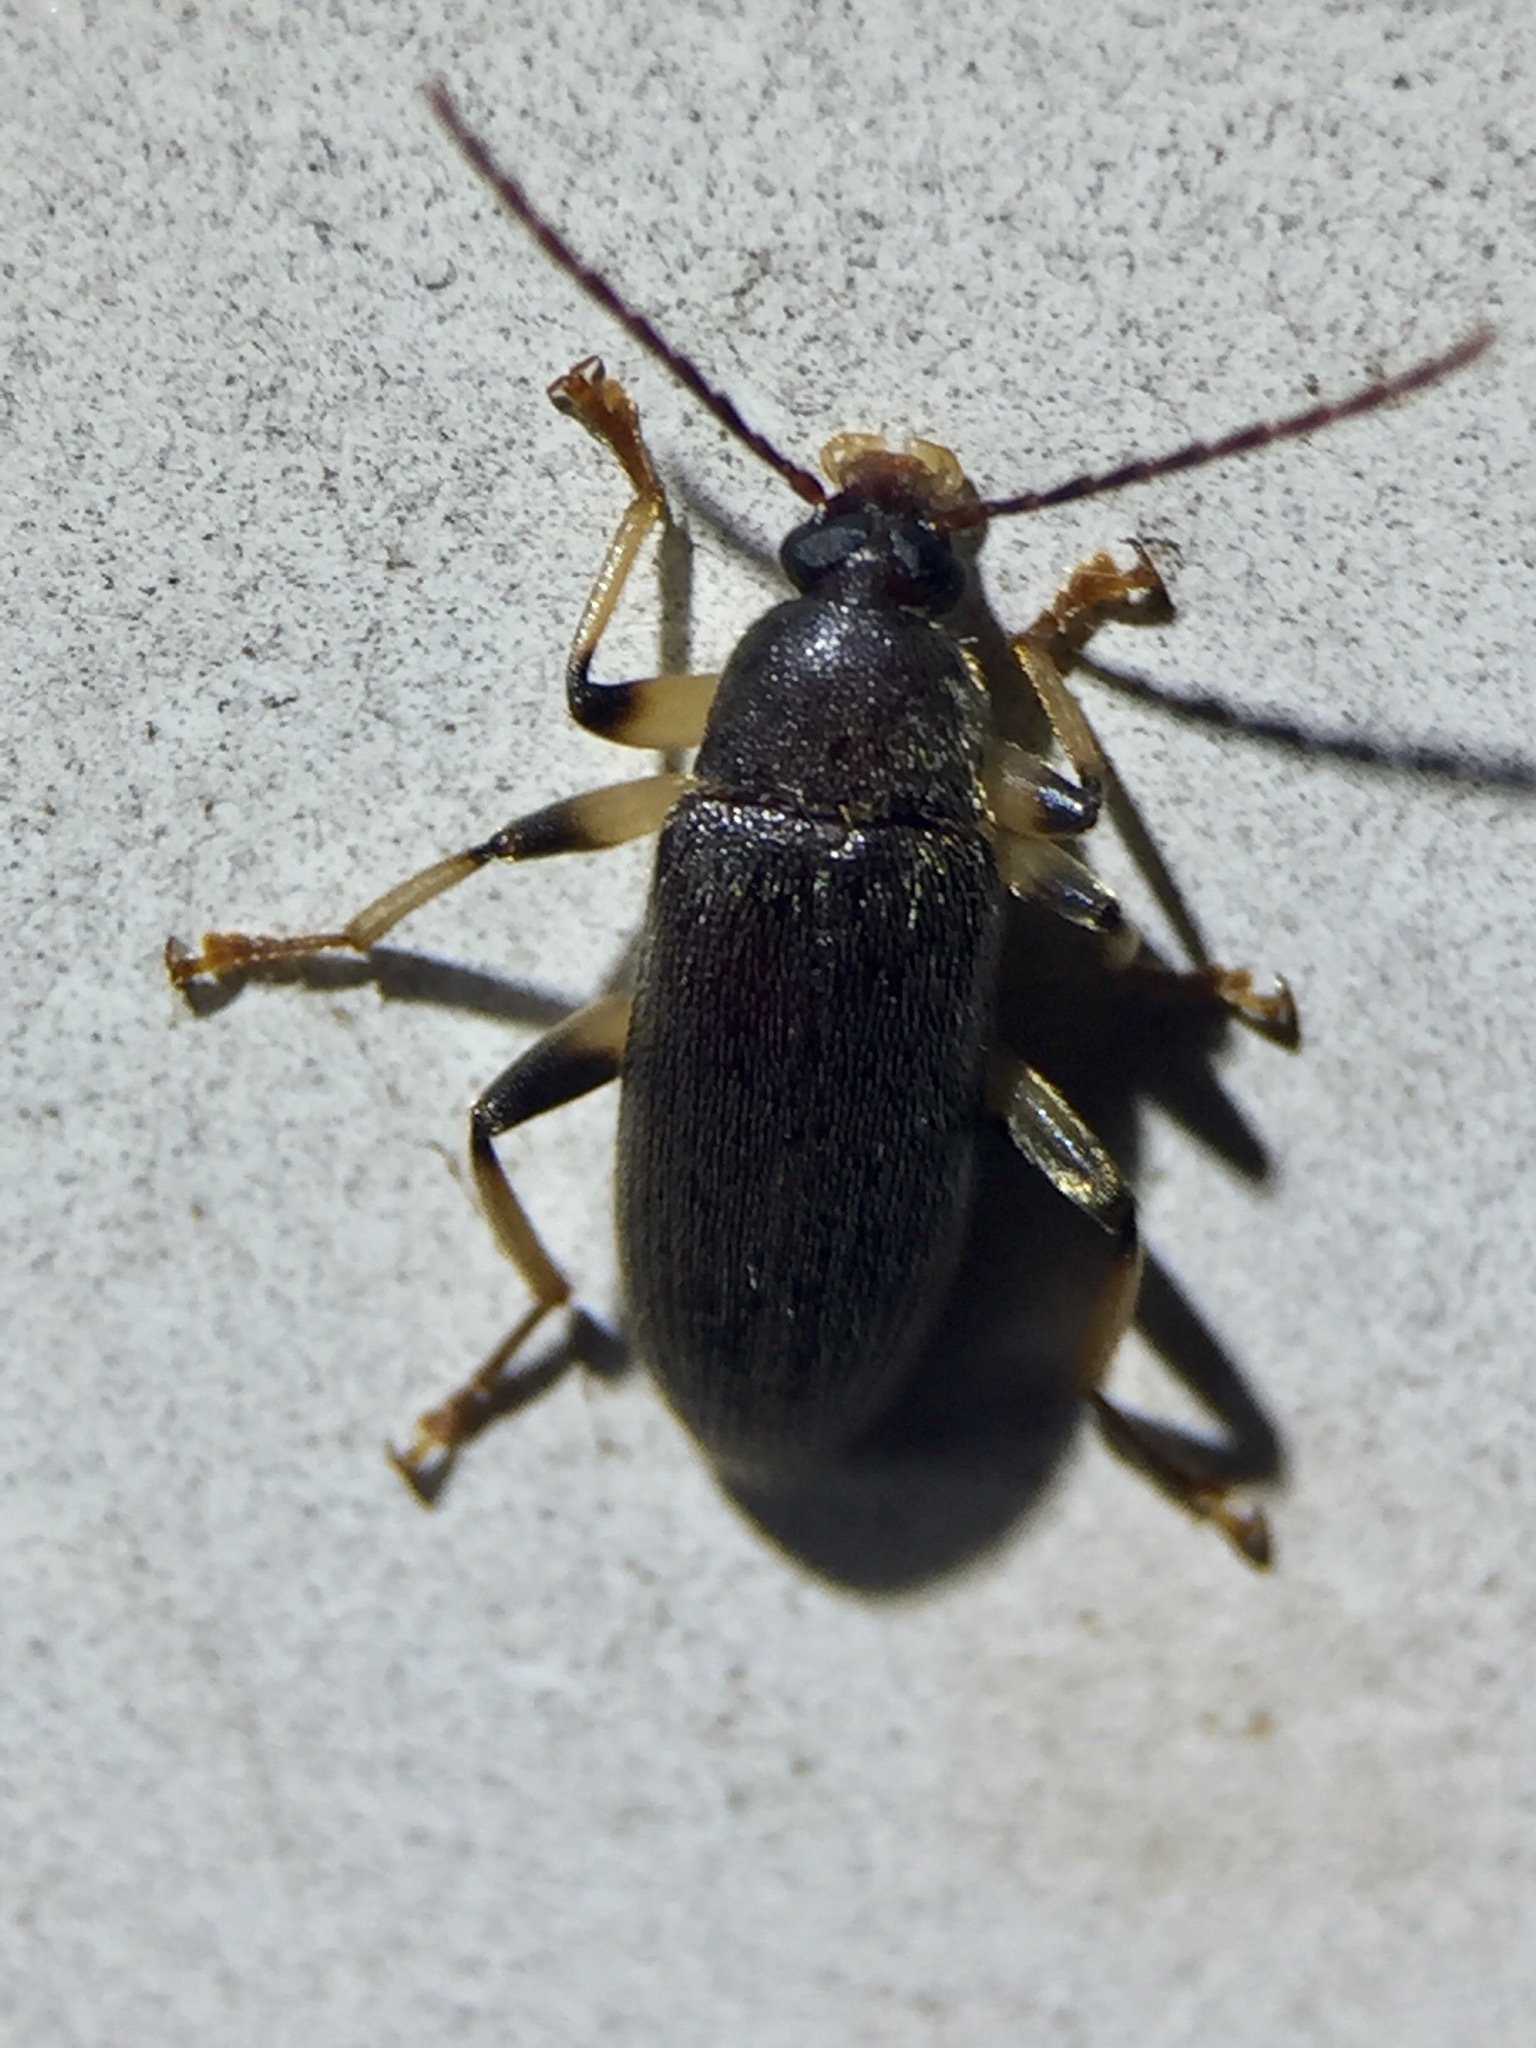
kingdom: Animalia
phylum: Arthropoda
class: Insecta
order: Coleoptera
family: Tenebrionidae
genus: Homotrysis
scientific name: Homotrysis
